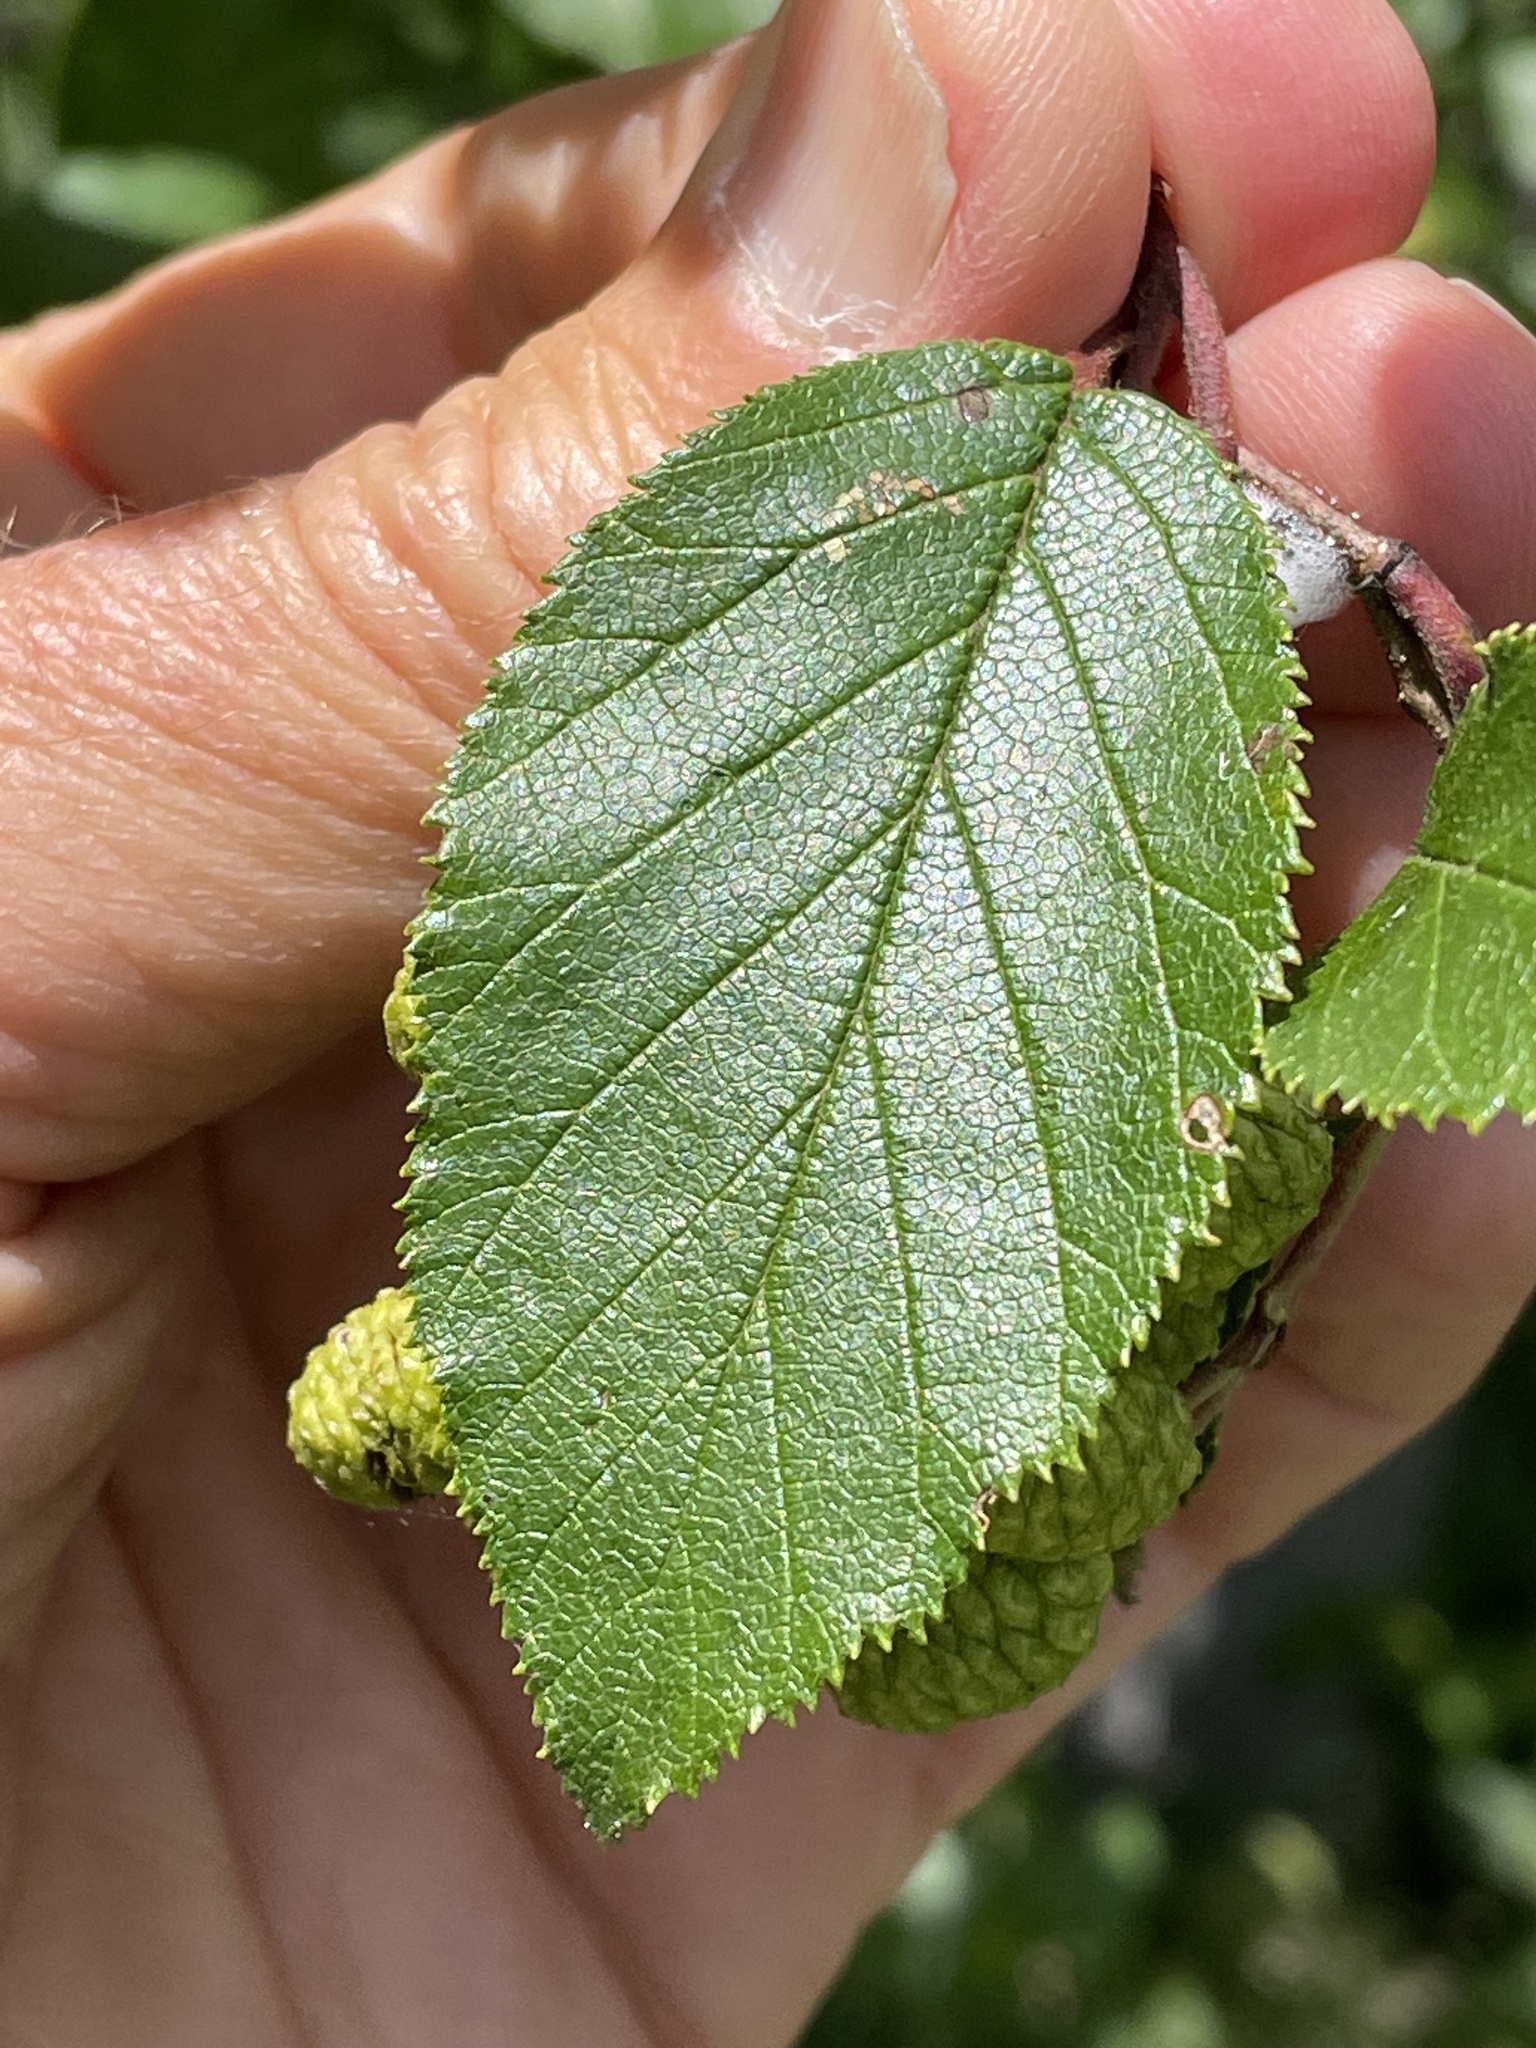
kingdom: Plantae
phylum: Tracheophyta
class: Magnoliopsida
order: Fagales
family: Betulaceae
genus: Alnus
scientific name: Alnus alnobetula
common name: Green alder
